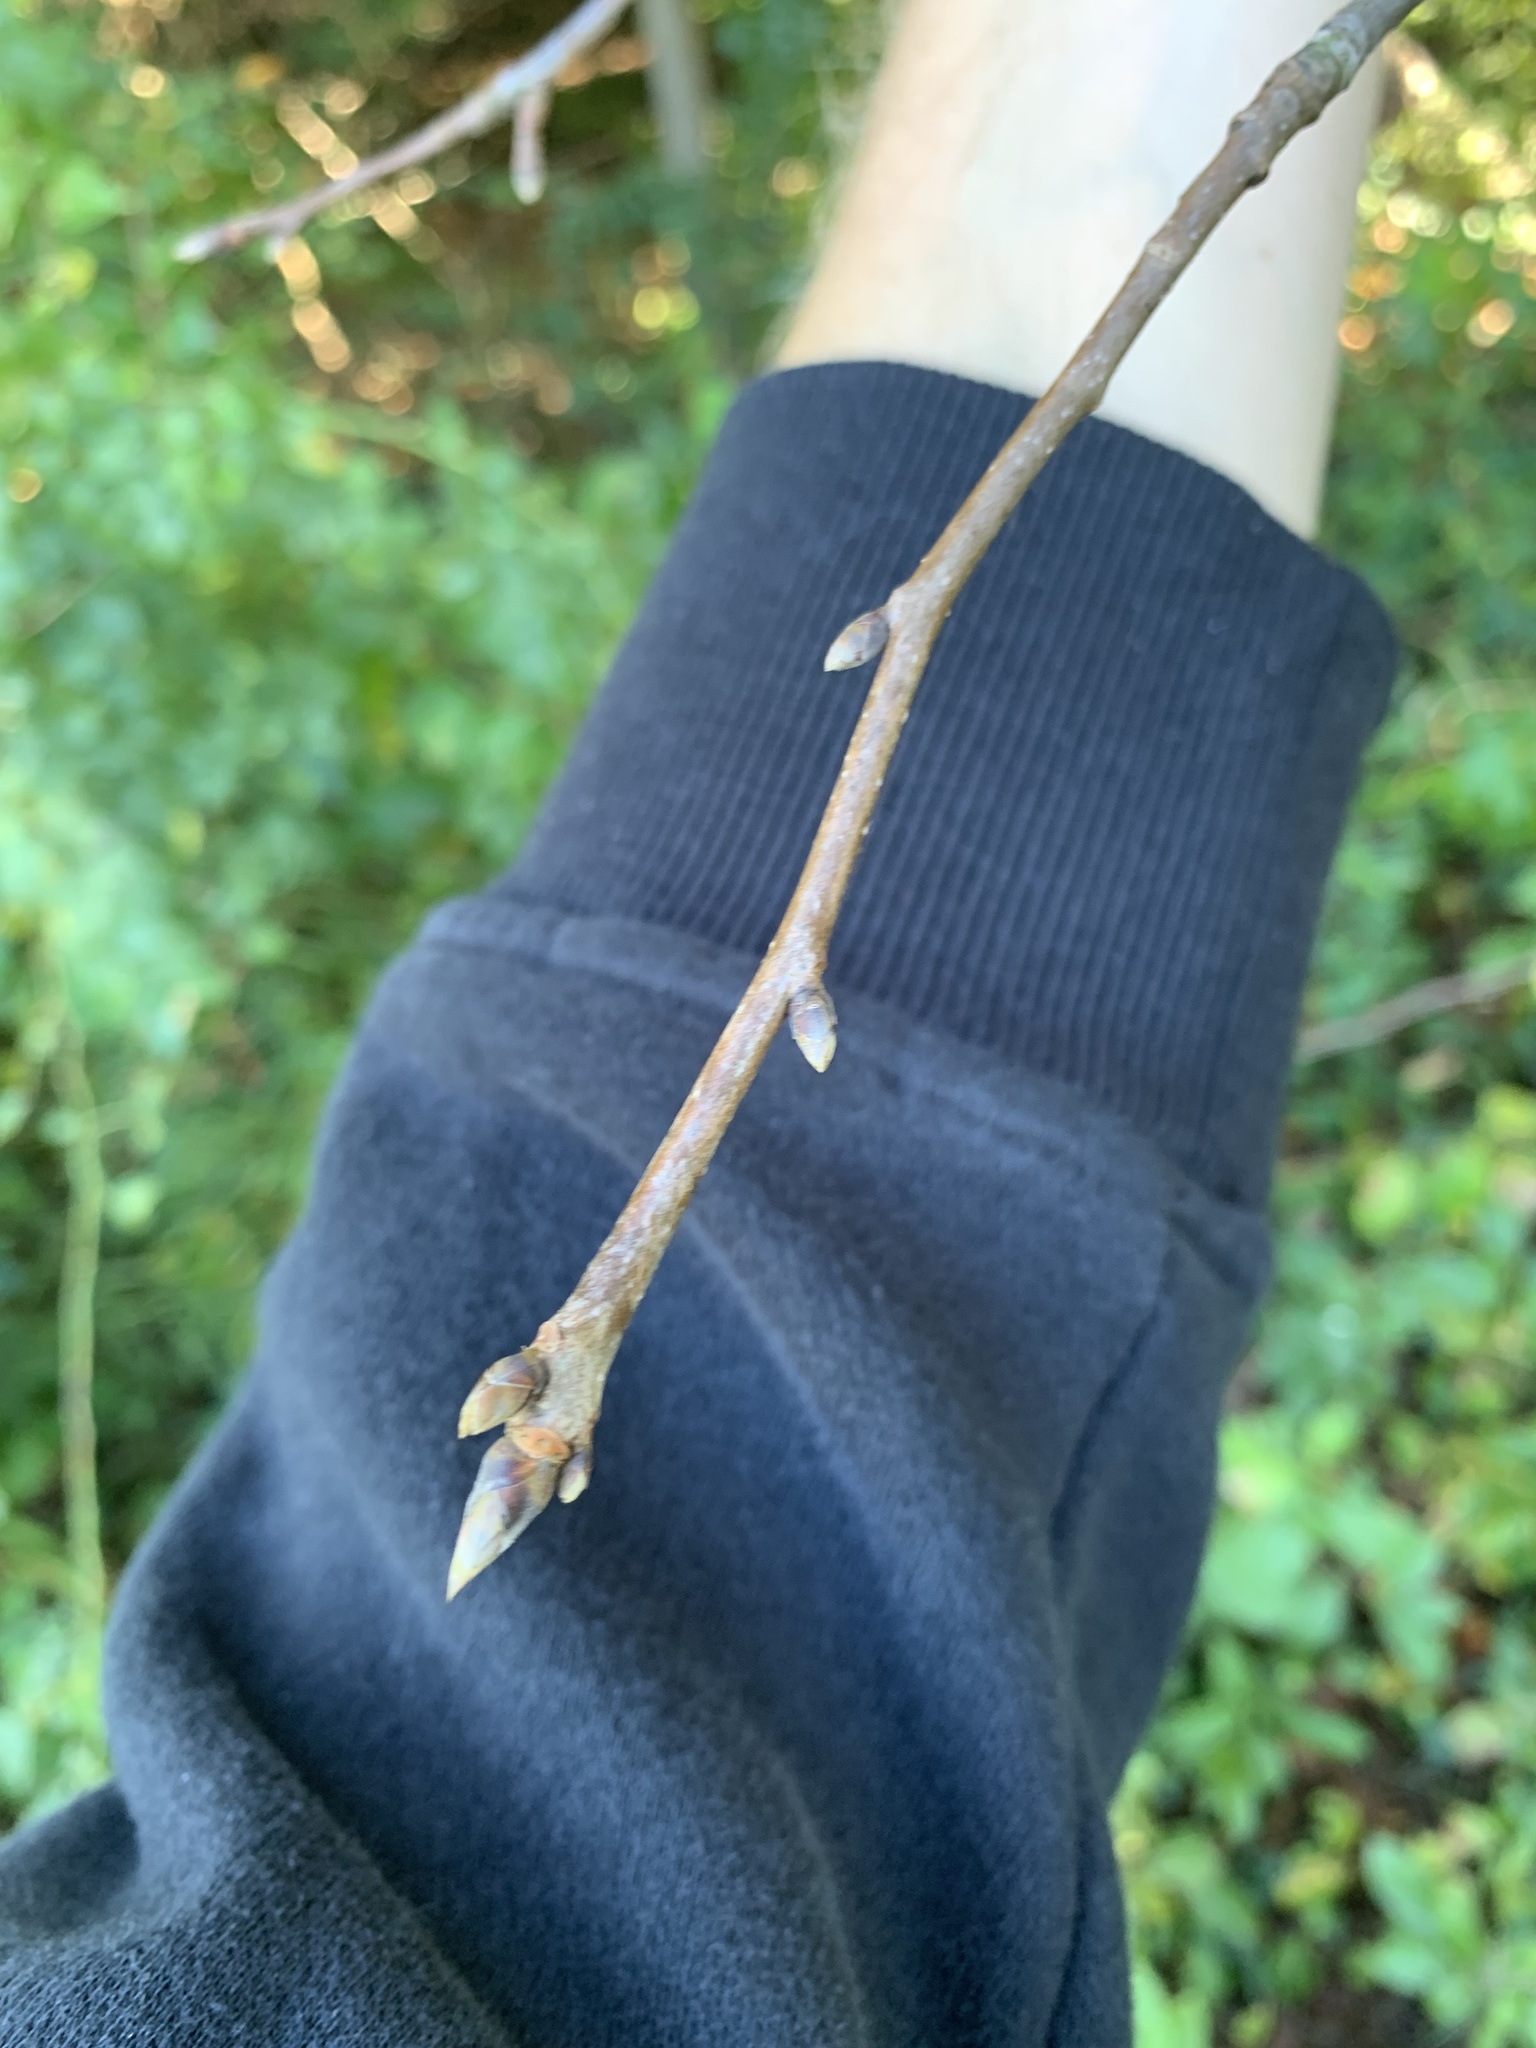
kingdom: Plantae
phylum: Tracheophyta
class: Magnoliopsida
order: Cornales
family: Nyssaceae
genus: Nyssa
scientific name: Nyssa sylvatica
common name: Black tupelo
